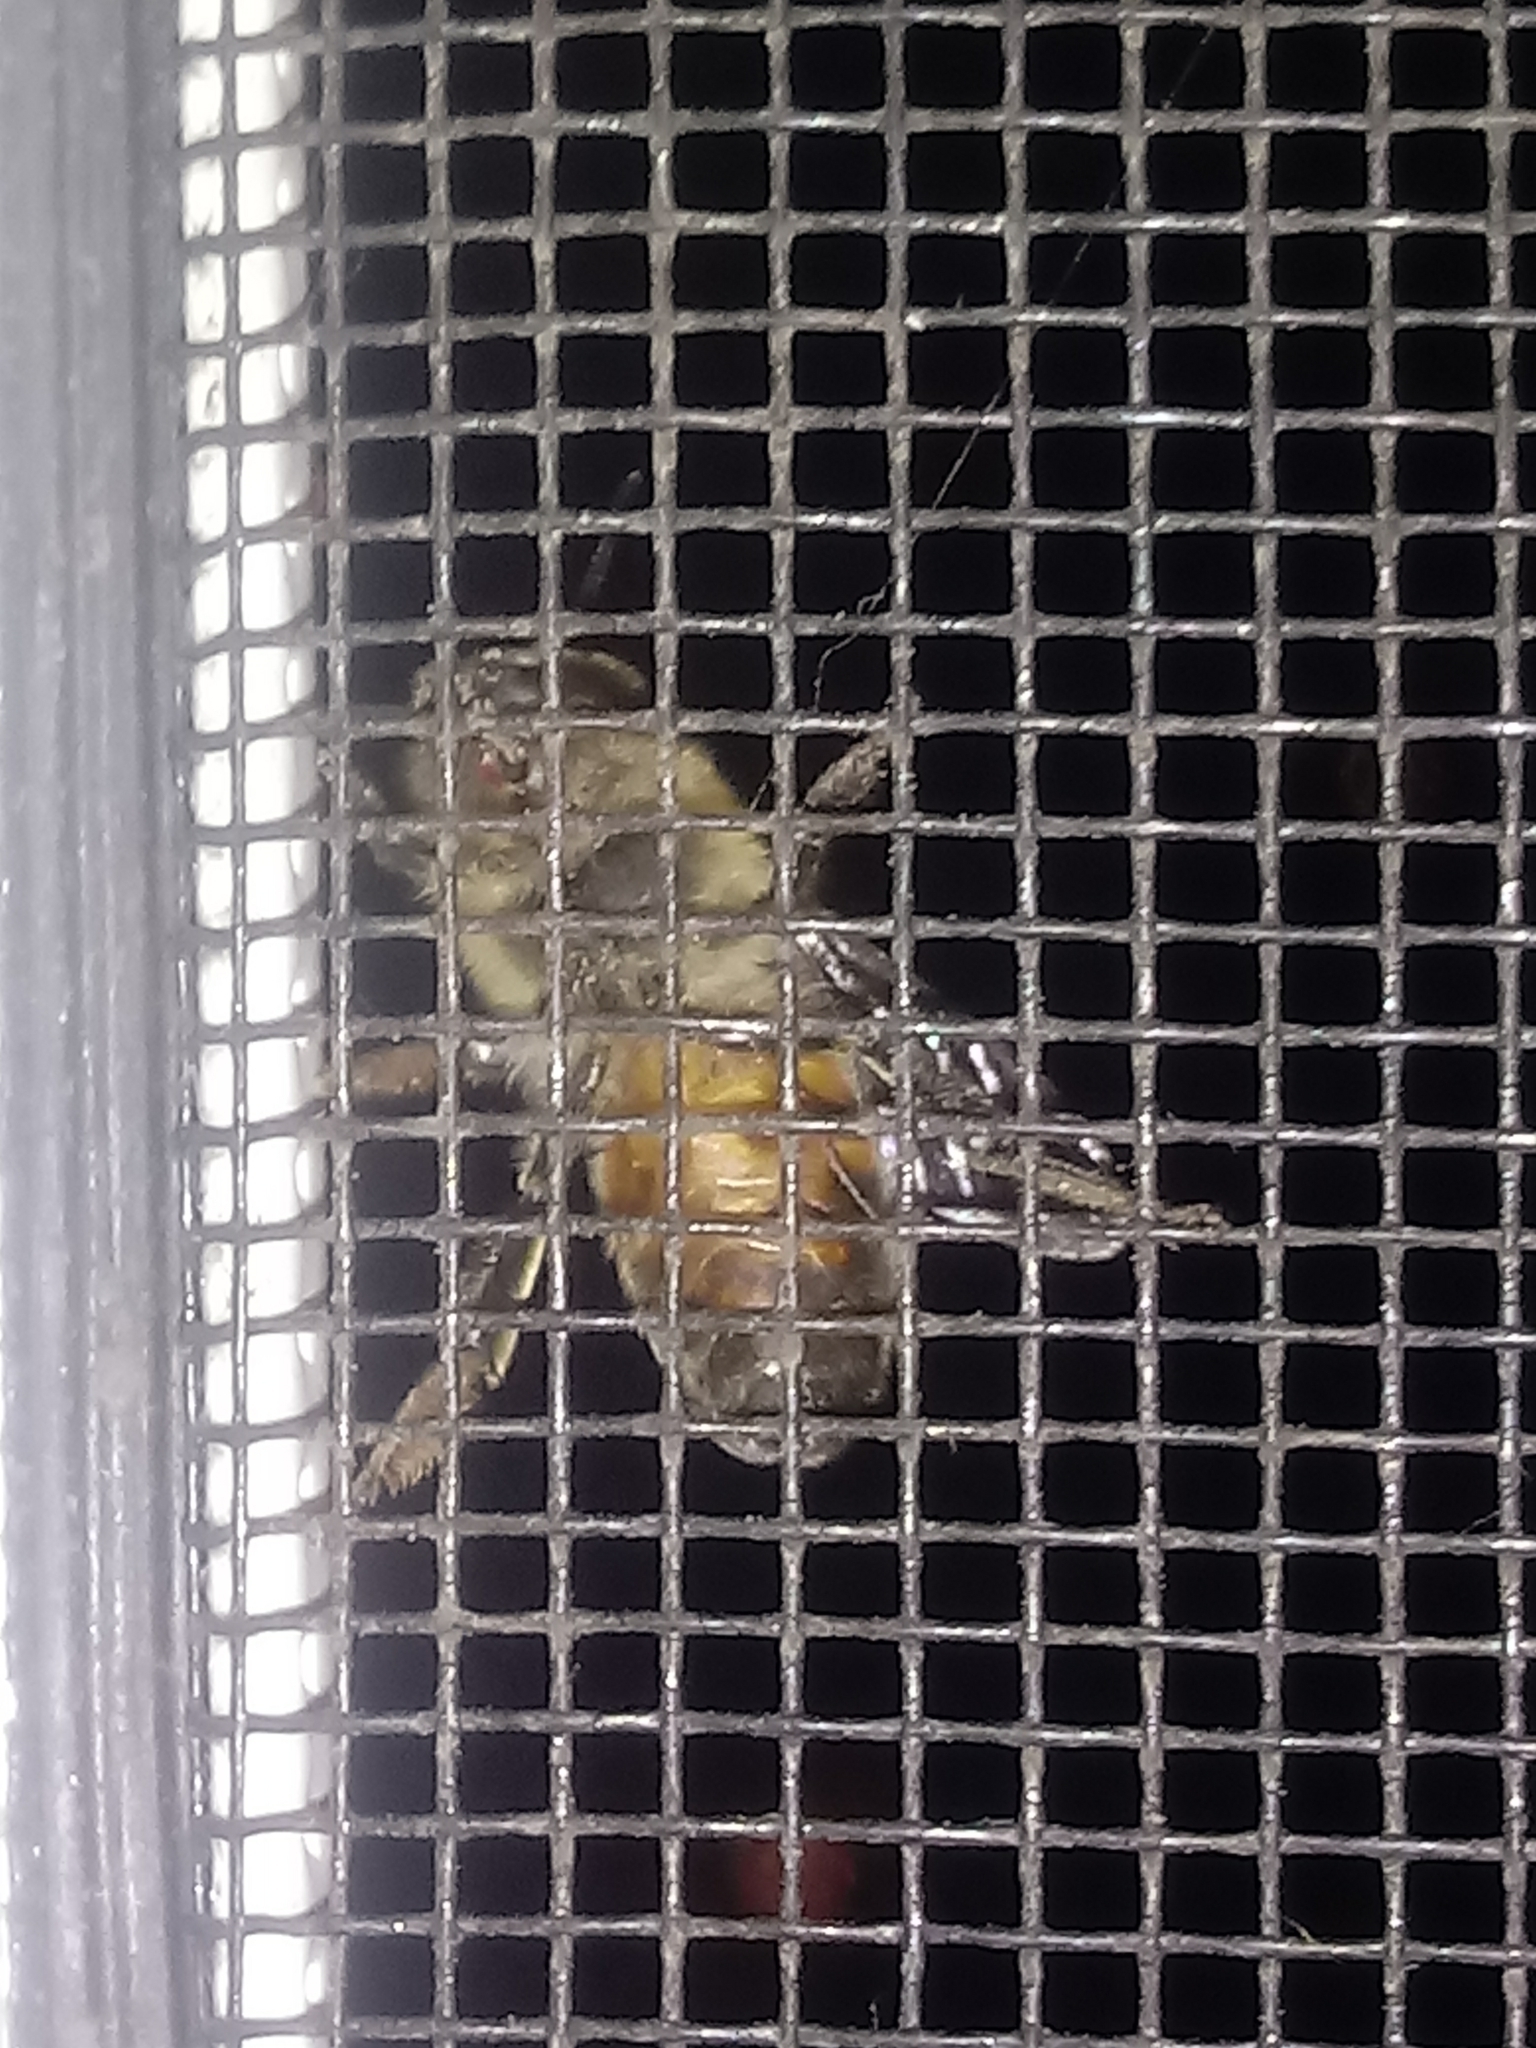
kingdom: Animalia
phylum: Arthropoda
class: Insecta
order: Hymenoptera
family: Apidae
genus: Apis
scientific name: Apis mellifera
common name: Honey bee
